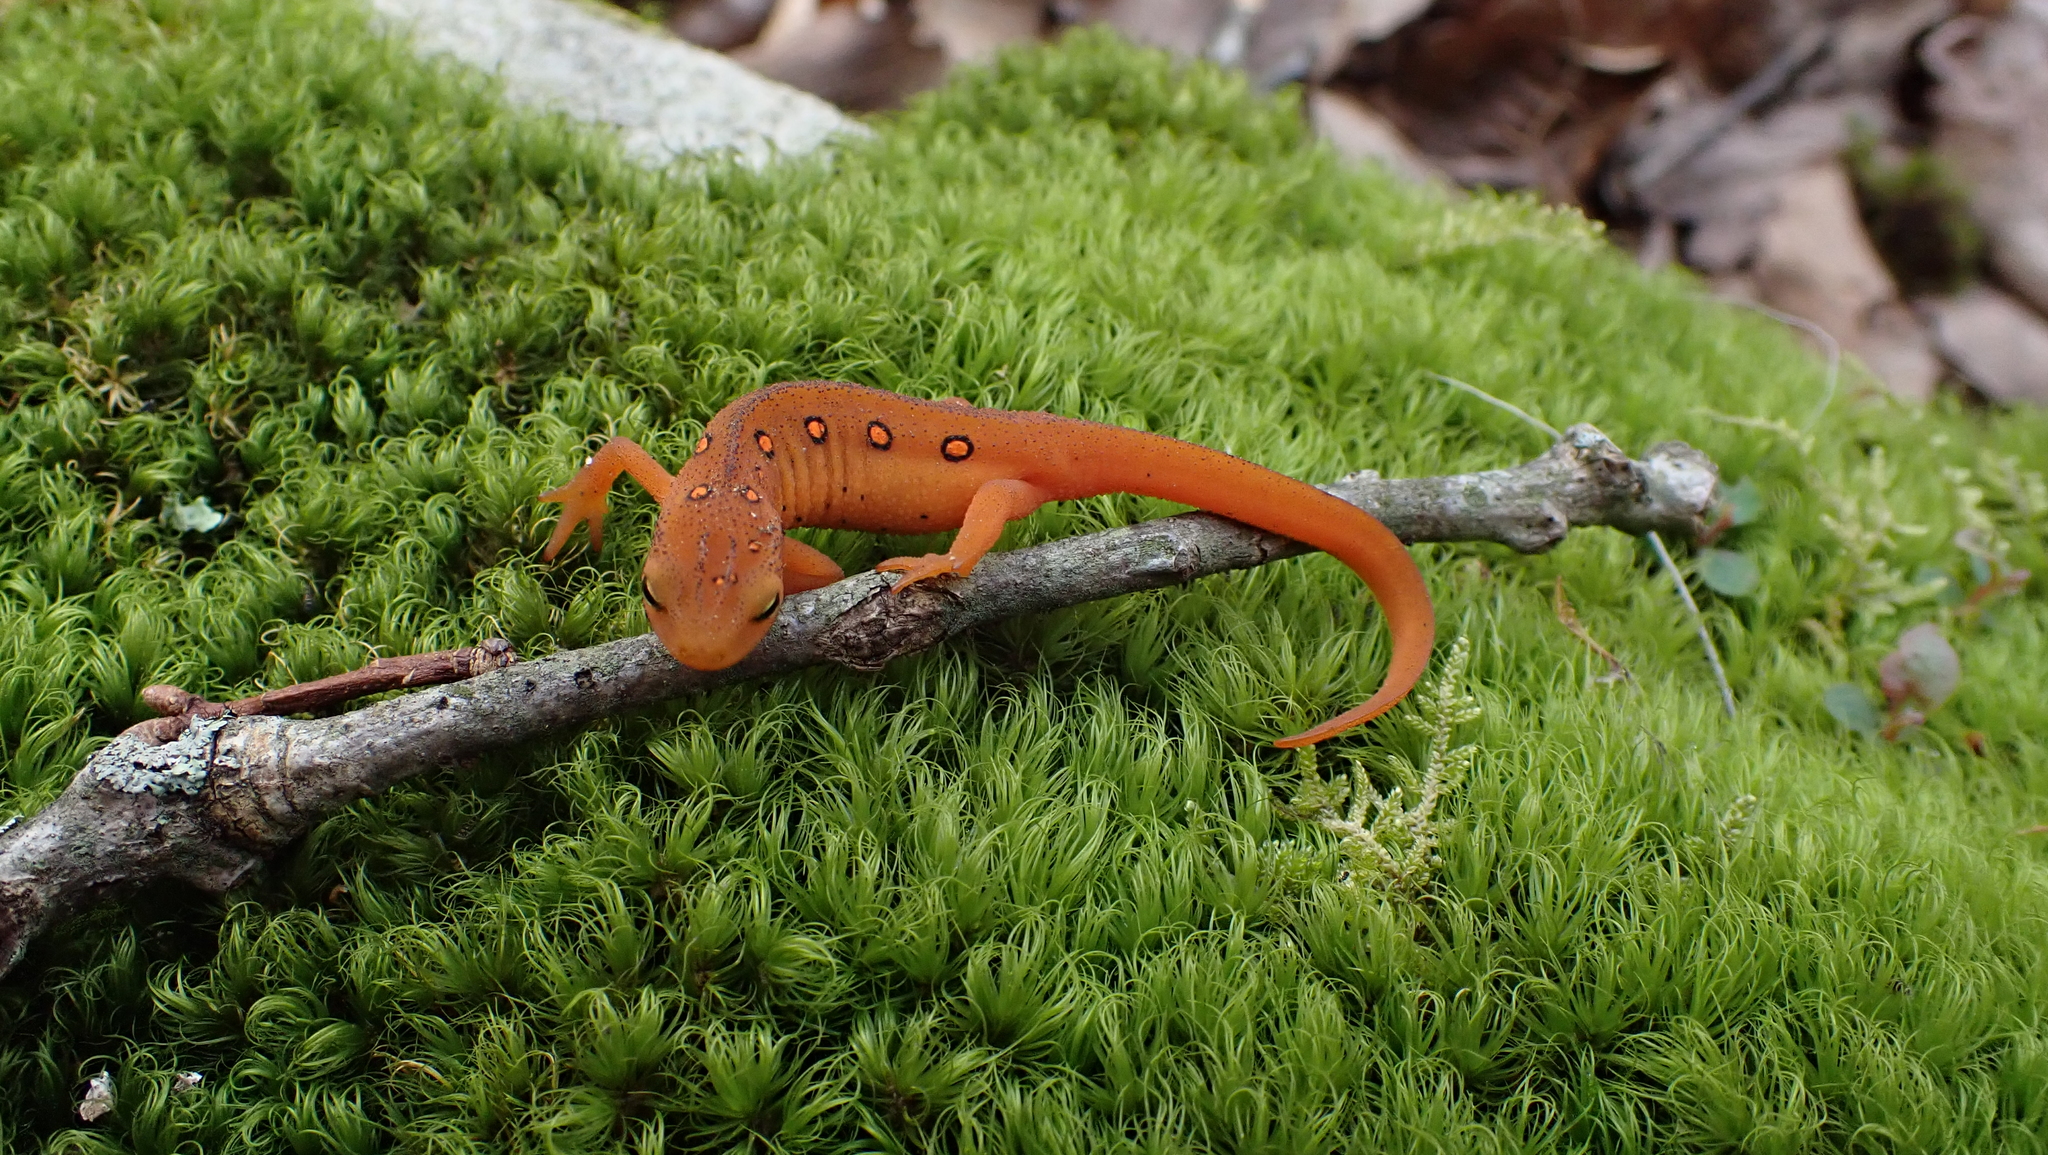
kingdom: Animalia
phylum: Chordata
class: Amphibia
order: Caudata
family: Salamandridae
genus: Notophthalmus
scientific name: Notophthalmus viridescens
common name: Eastern newt
